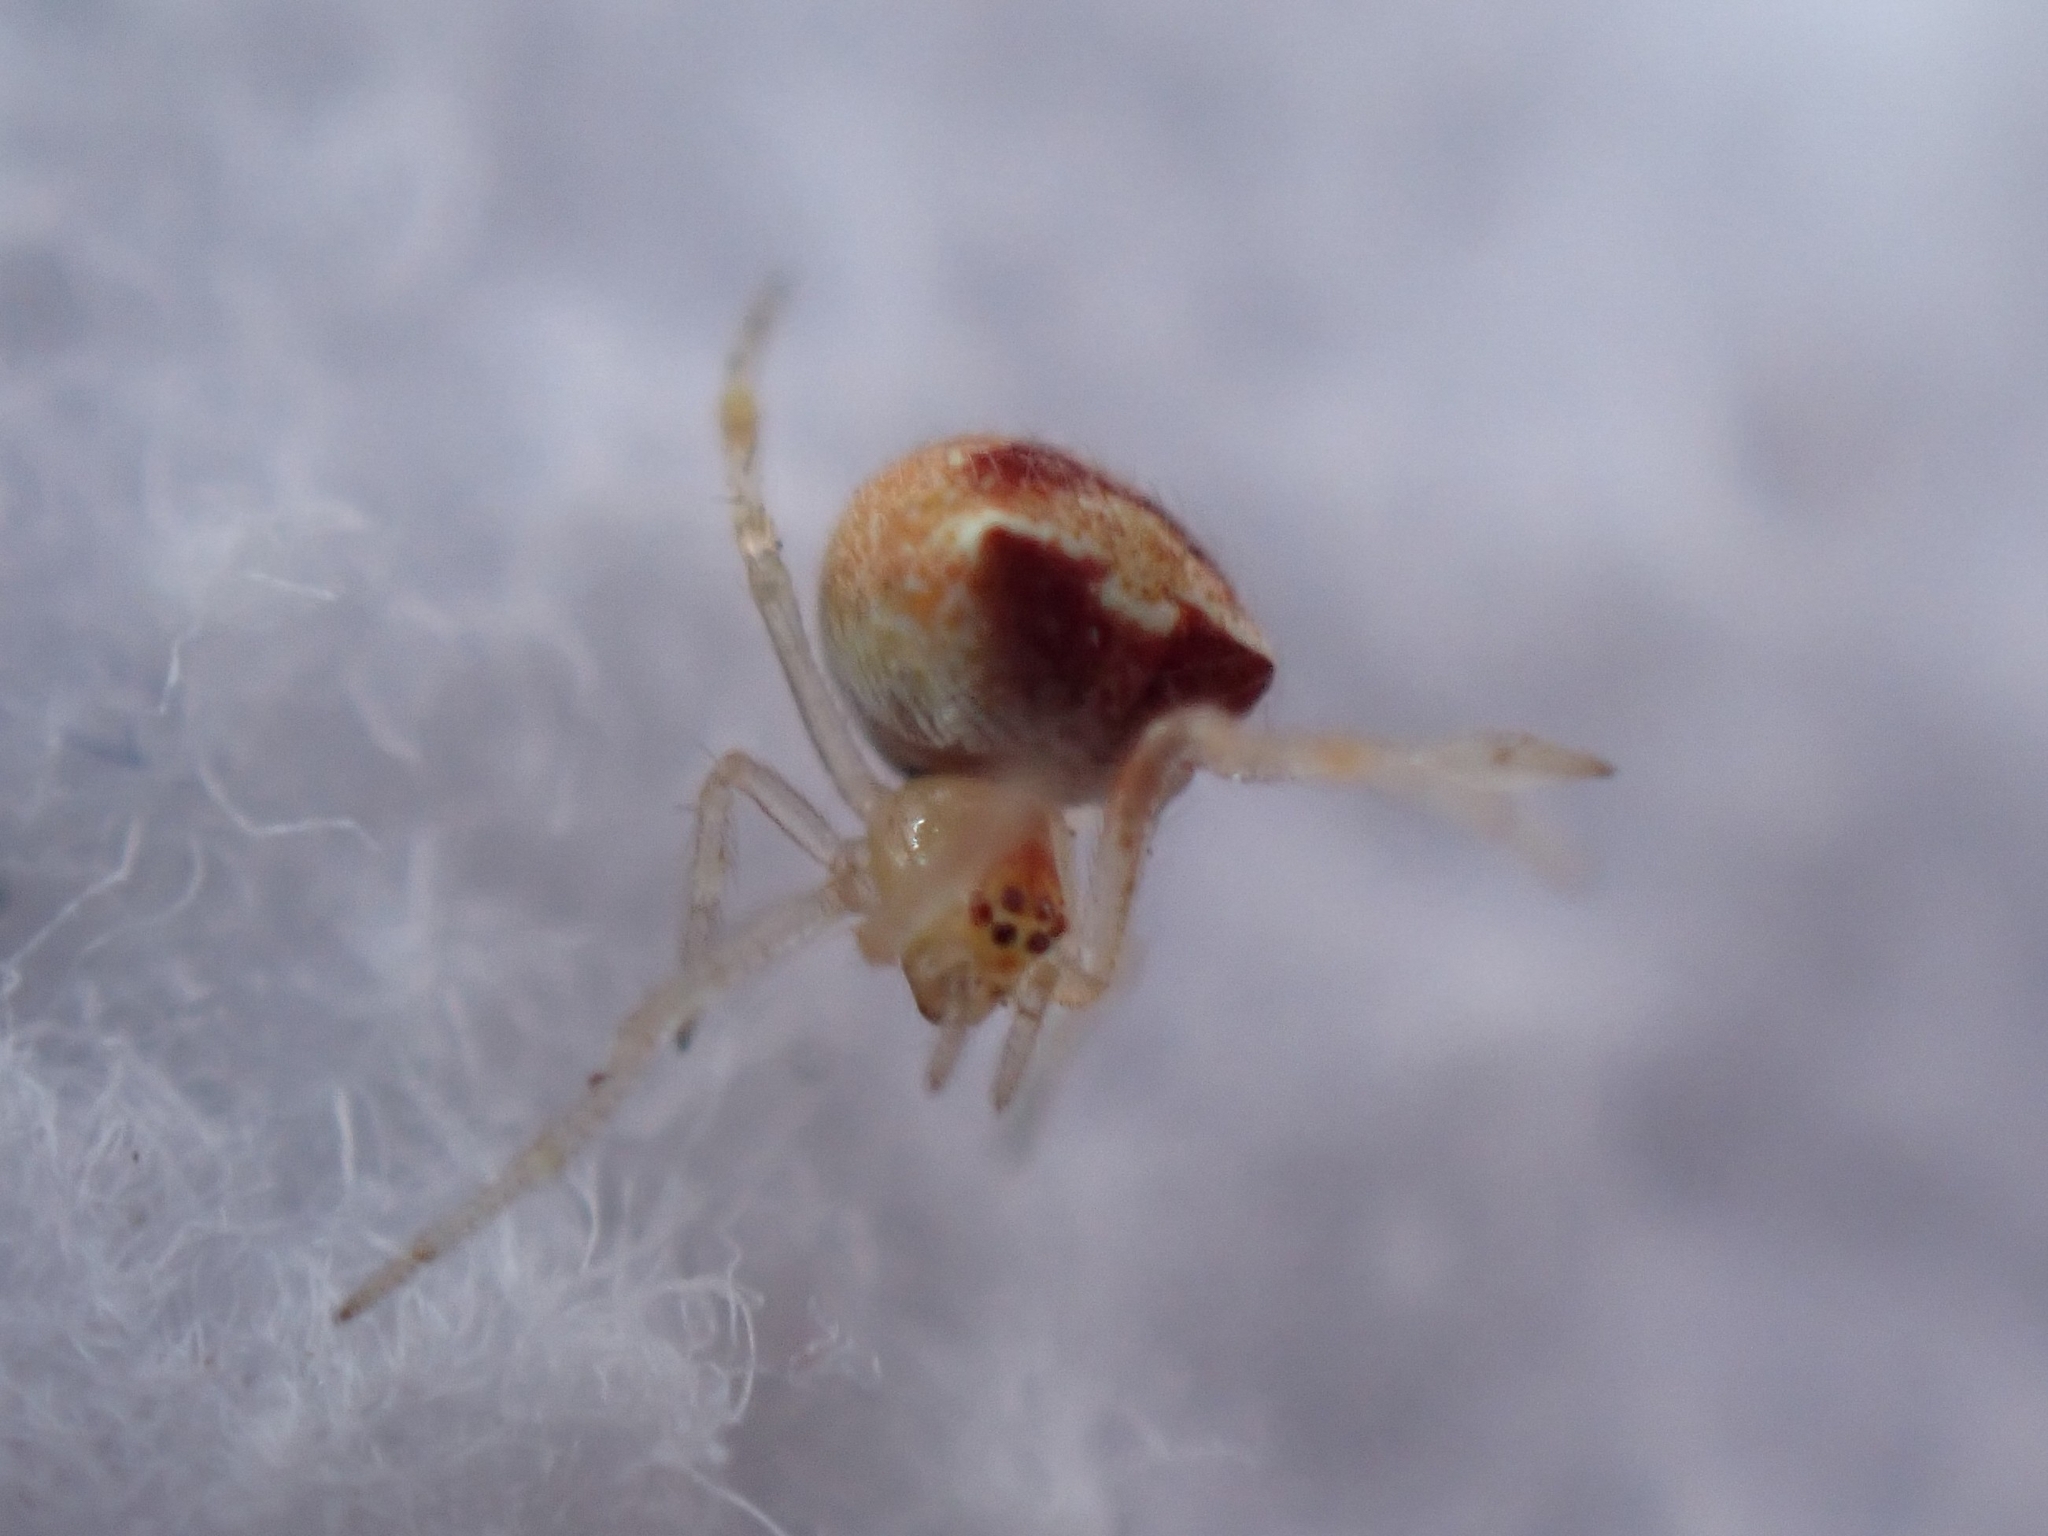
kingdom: Animalia
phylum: Arthropoda
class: Arachnida
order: Araneae
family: Theridiidae
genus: Paidiscura
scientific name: Paidiscura orotavensis
